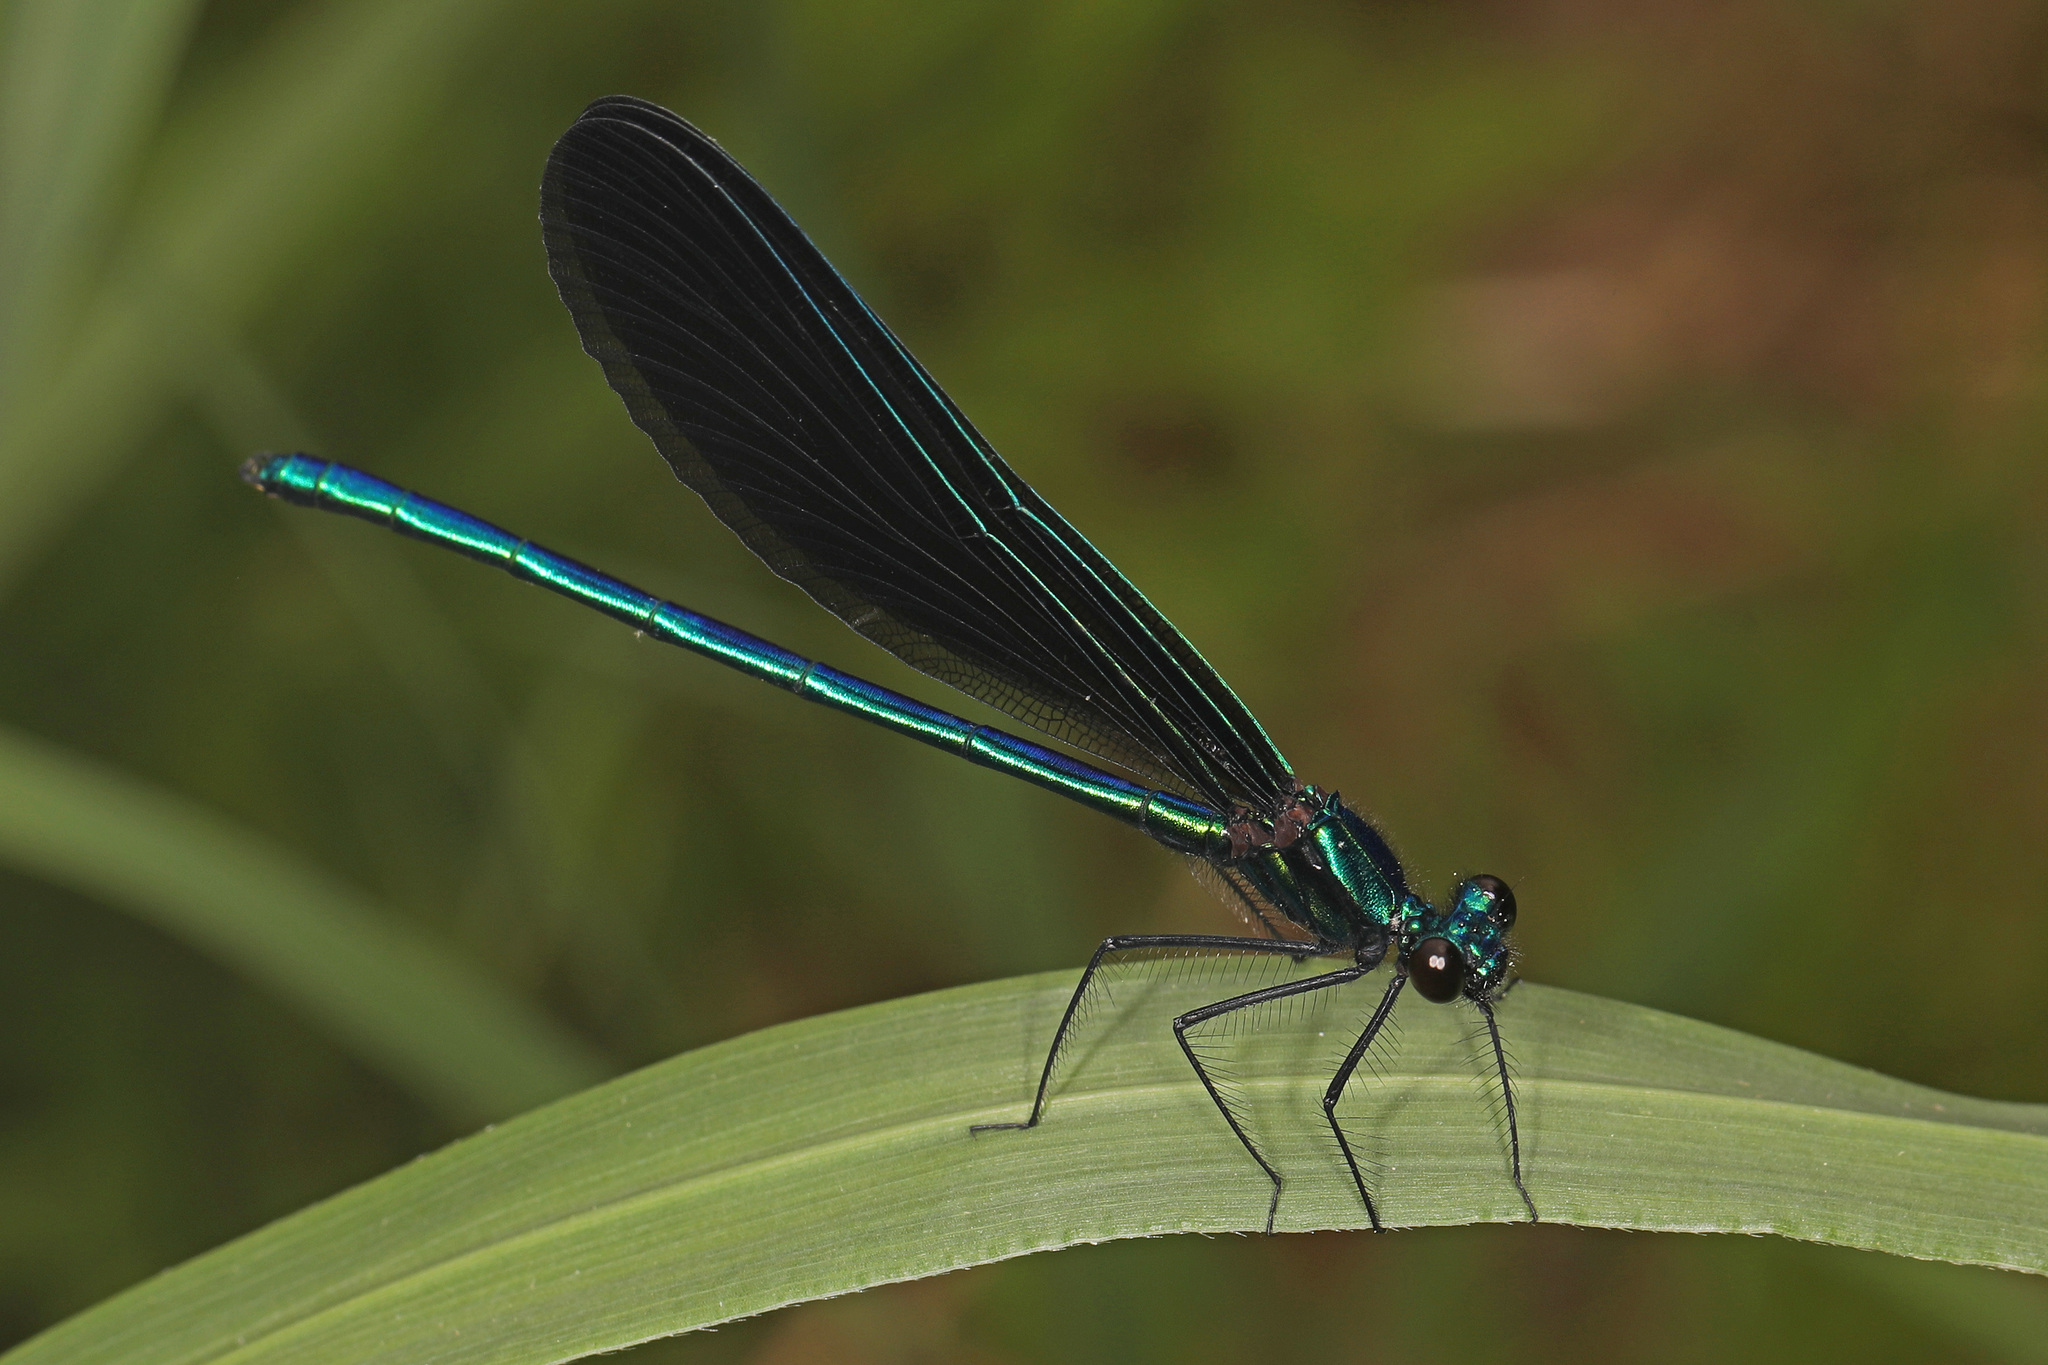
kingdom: Animalia
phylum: Arthropoda
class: Insecta
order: Odonata
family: Calopterygidae
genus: Calopteryx
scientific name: Calopteryx maculata
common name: Ebony jewelwing
